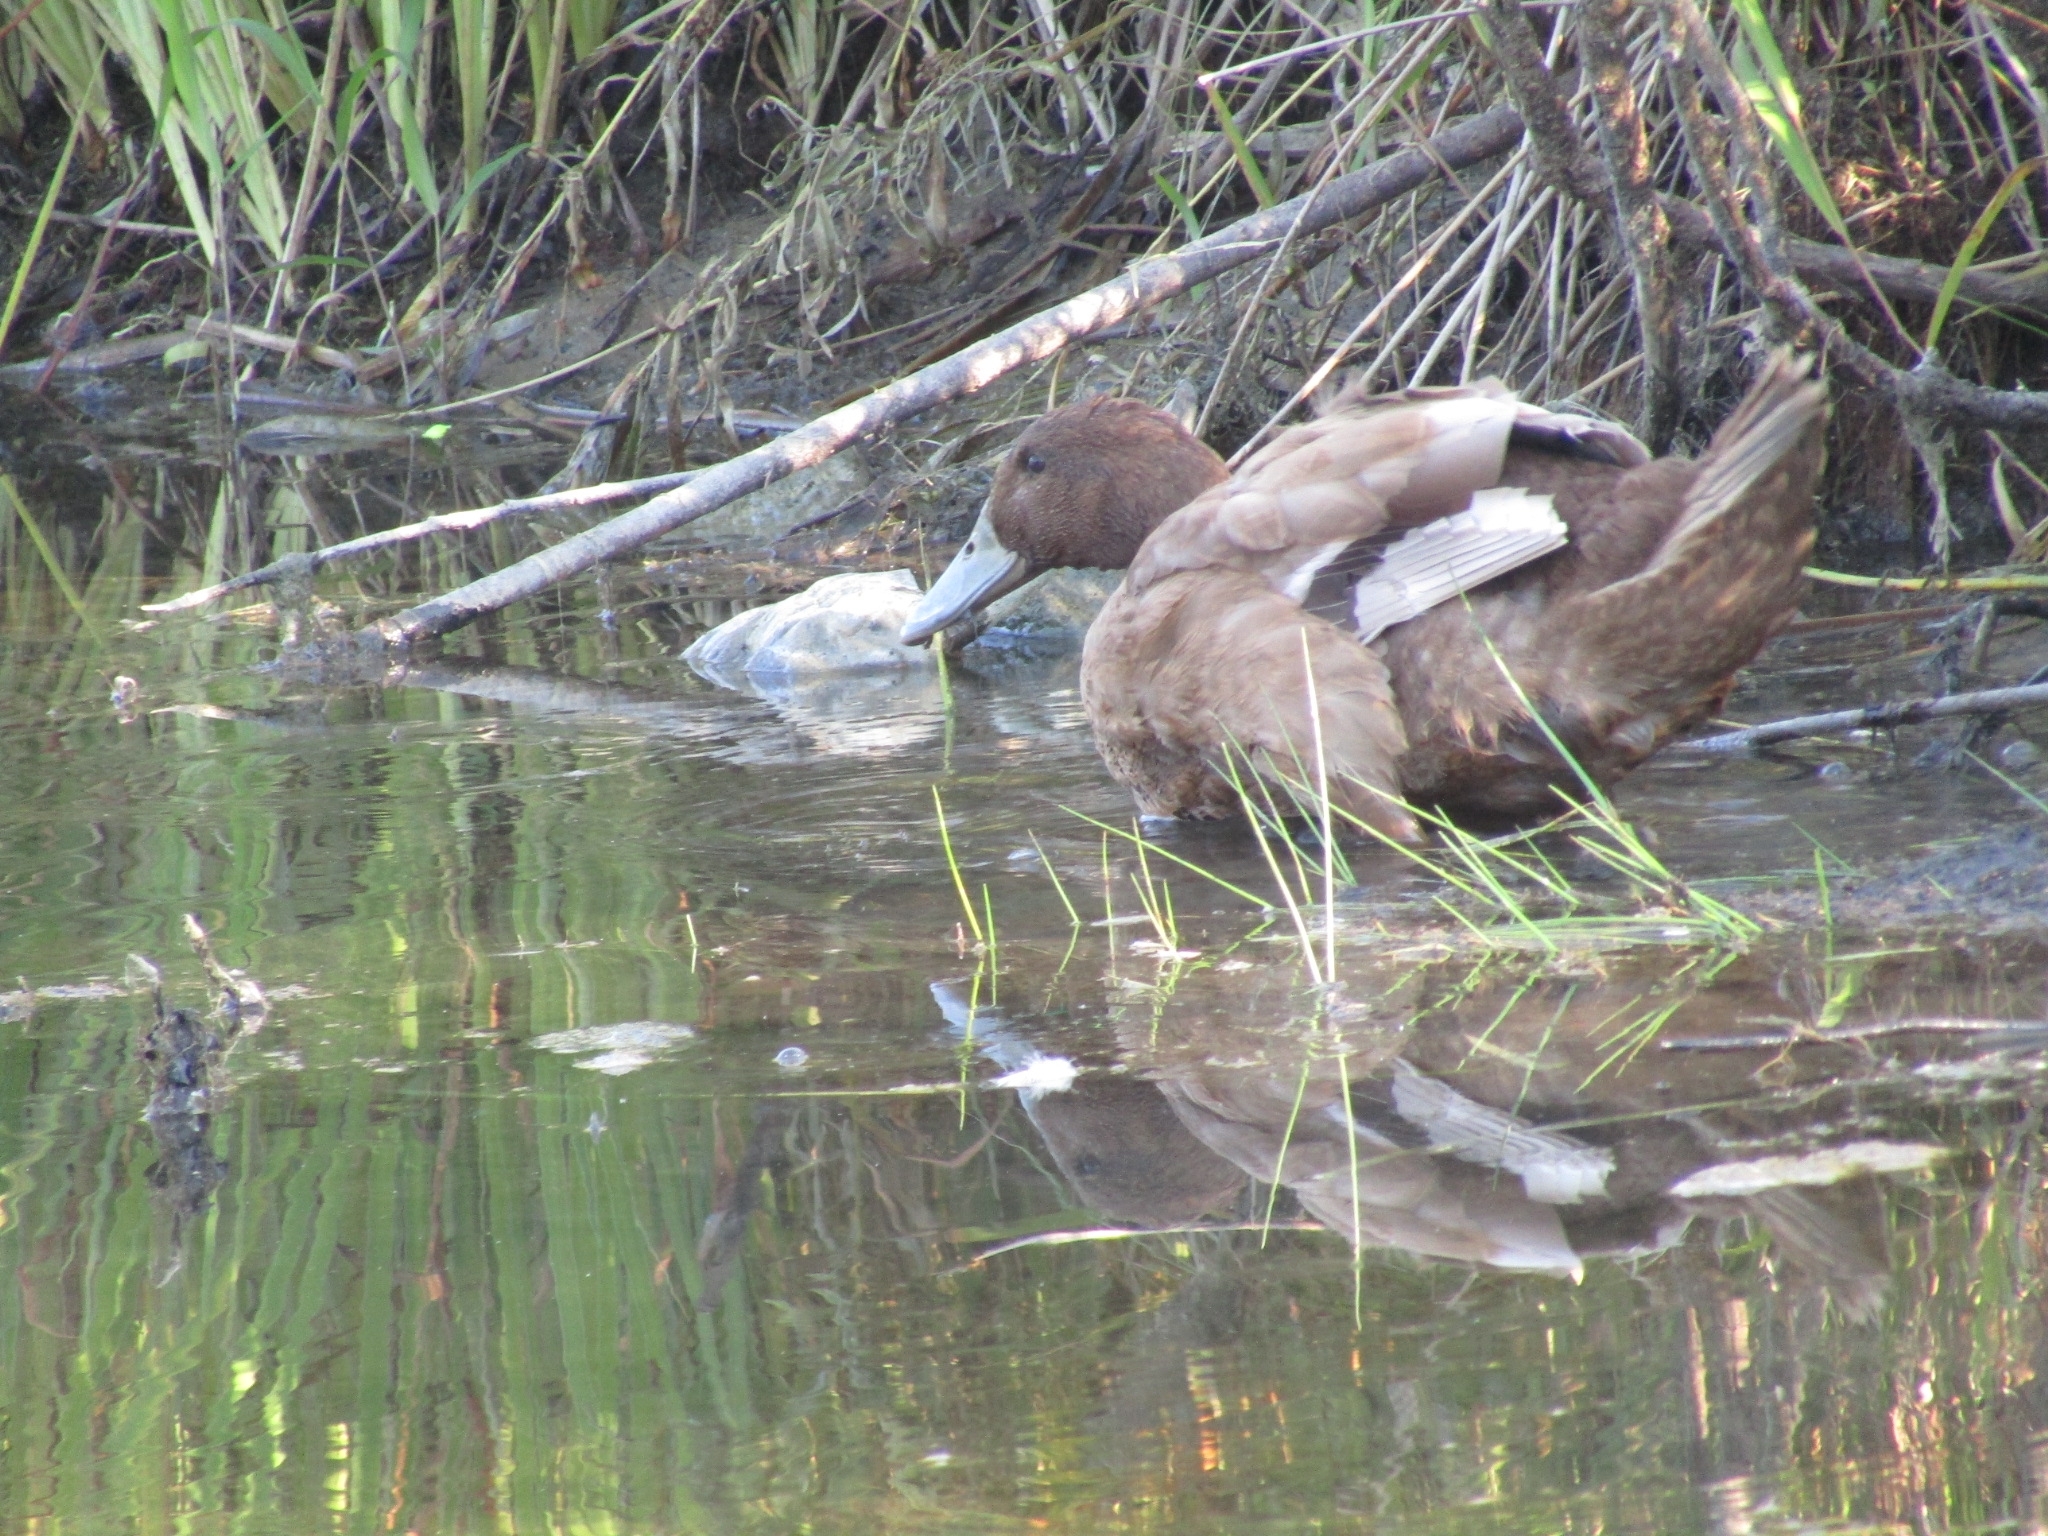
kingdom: Animalia
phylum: Chordata
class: Aves
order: Anseriformes
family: Anatidae
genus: Anas
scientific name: Anas platyrhynchos
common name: Mallard
